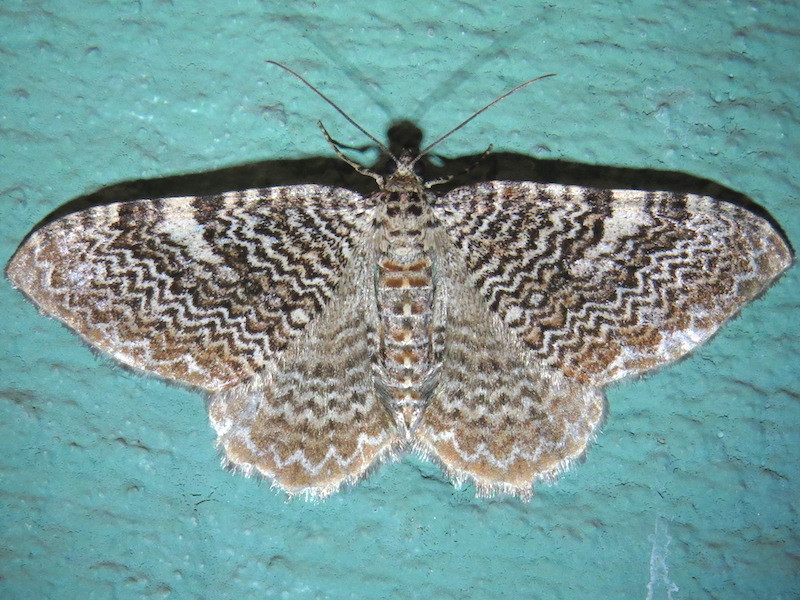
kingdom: Animalia
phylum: Arthropoda
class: Insecta
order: Lepidoptera
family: Geometridae
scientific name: Geometridae
